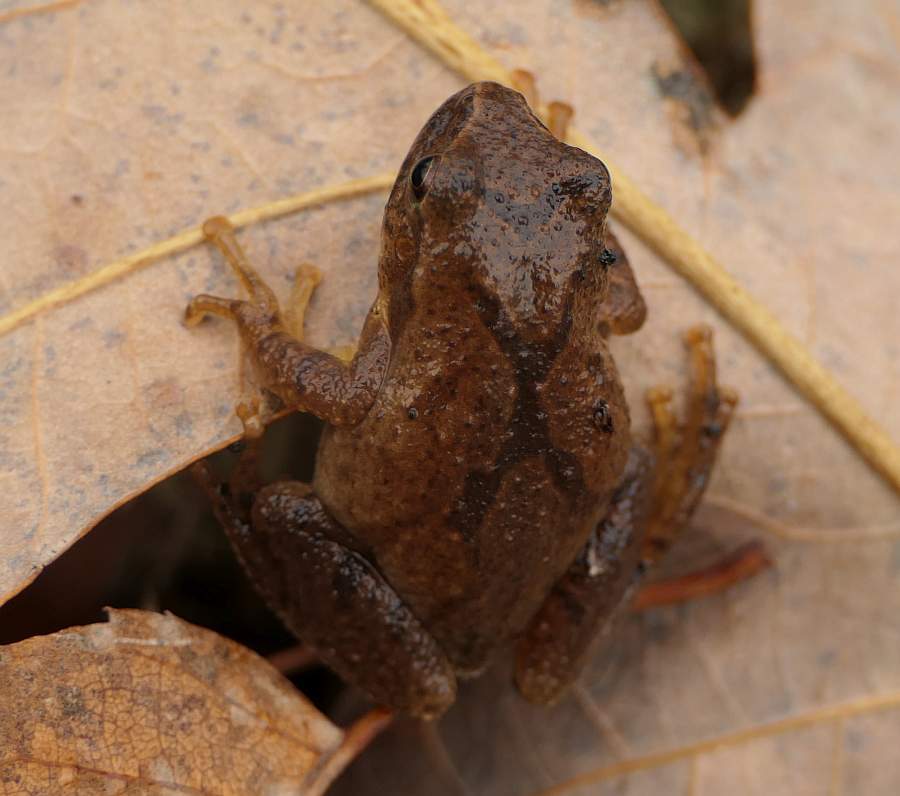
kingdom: Animalia
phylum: Chordata
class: Amphibia
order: Anura
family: Hylidae
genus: Pseudacris
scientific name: Pseudacris crucifer
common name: Spring peeper
